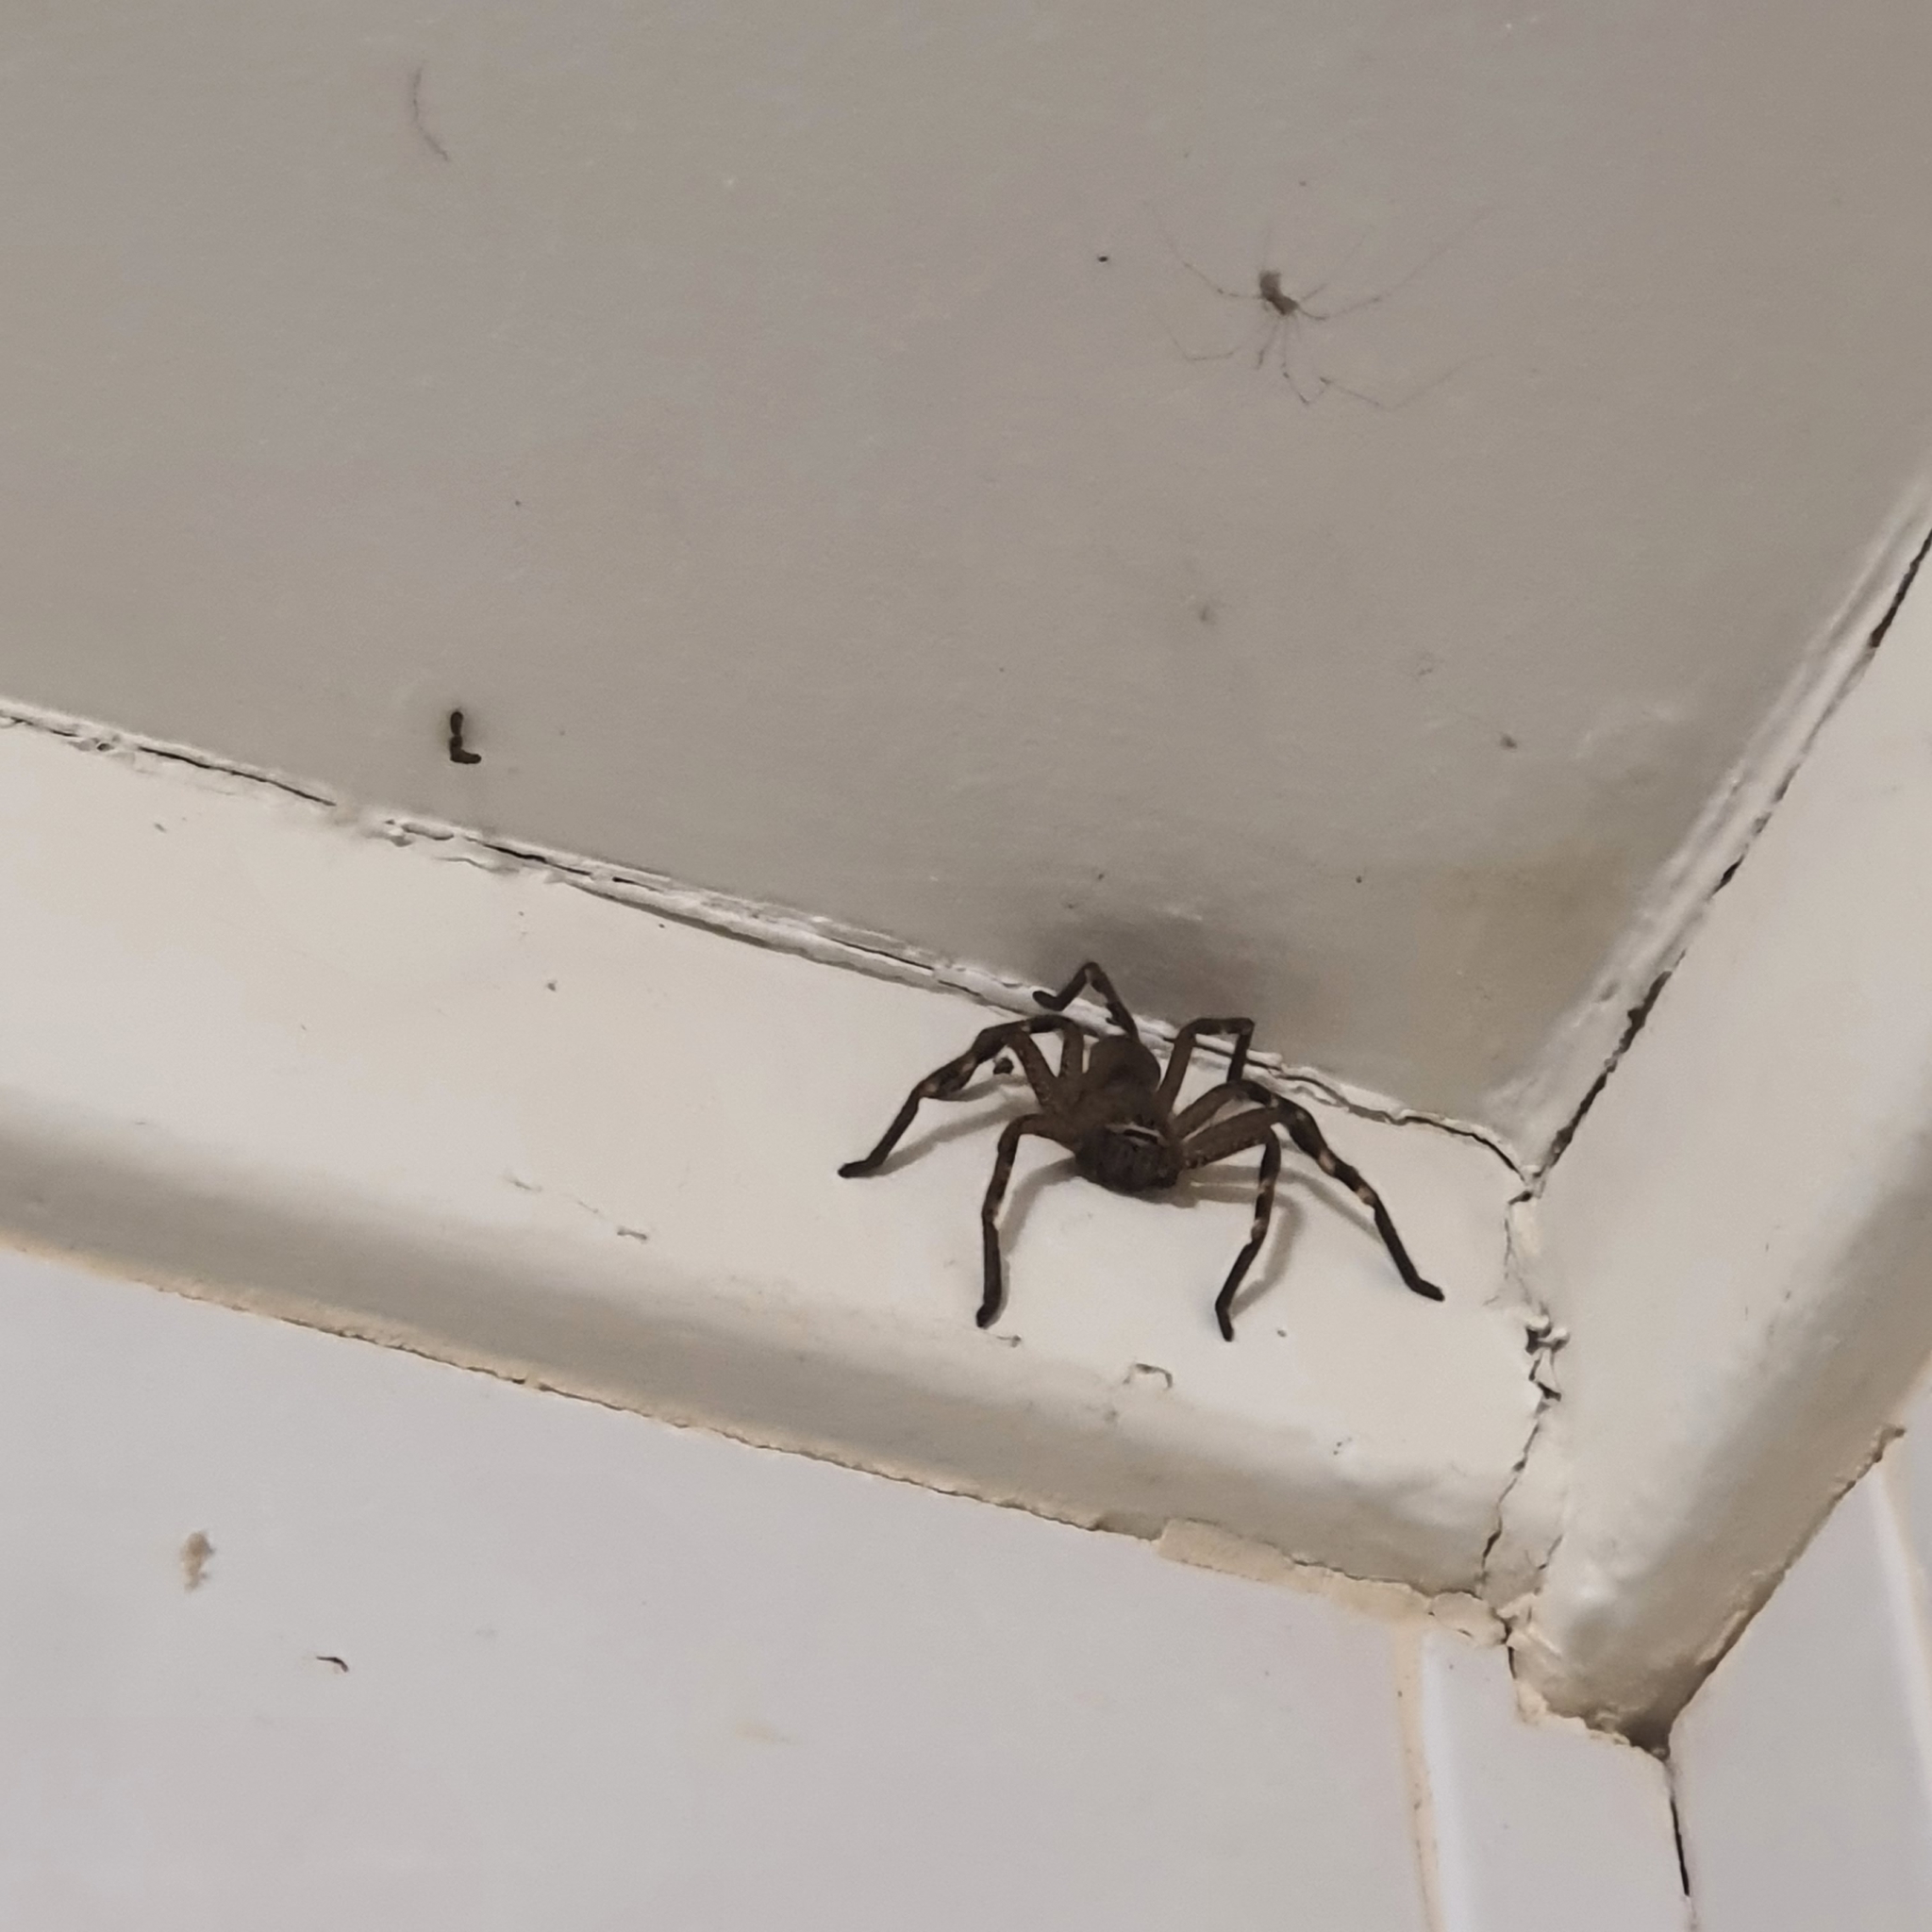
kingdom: Animalia
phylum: Arthropoda
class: Arachnida
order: Araneae
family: Sparassidae
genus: Neosparassus
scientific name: Neosparassus calligaster
